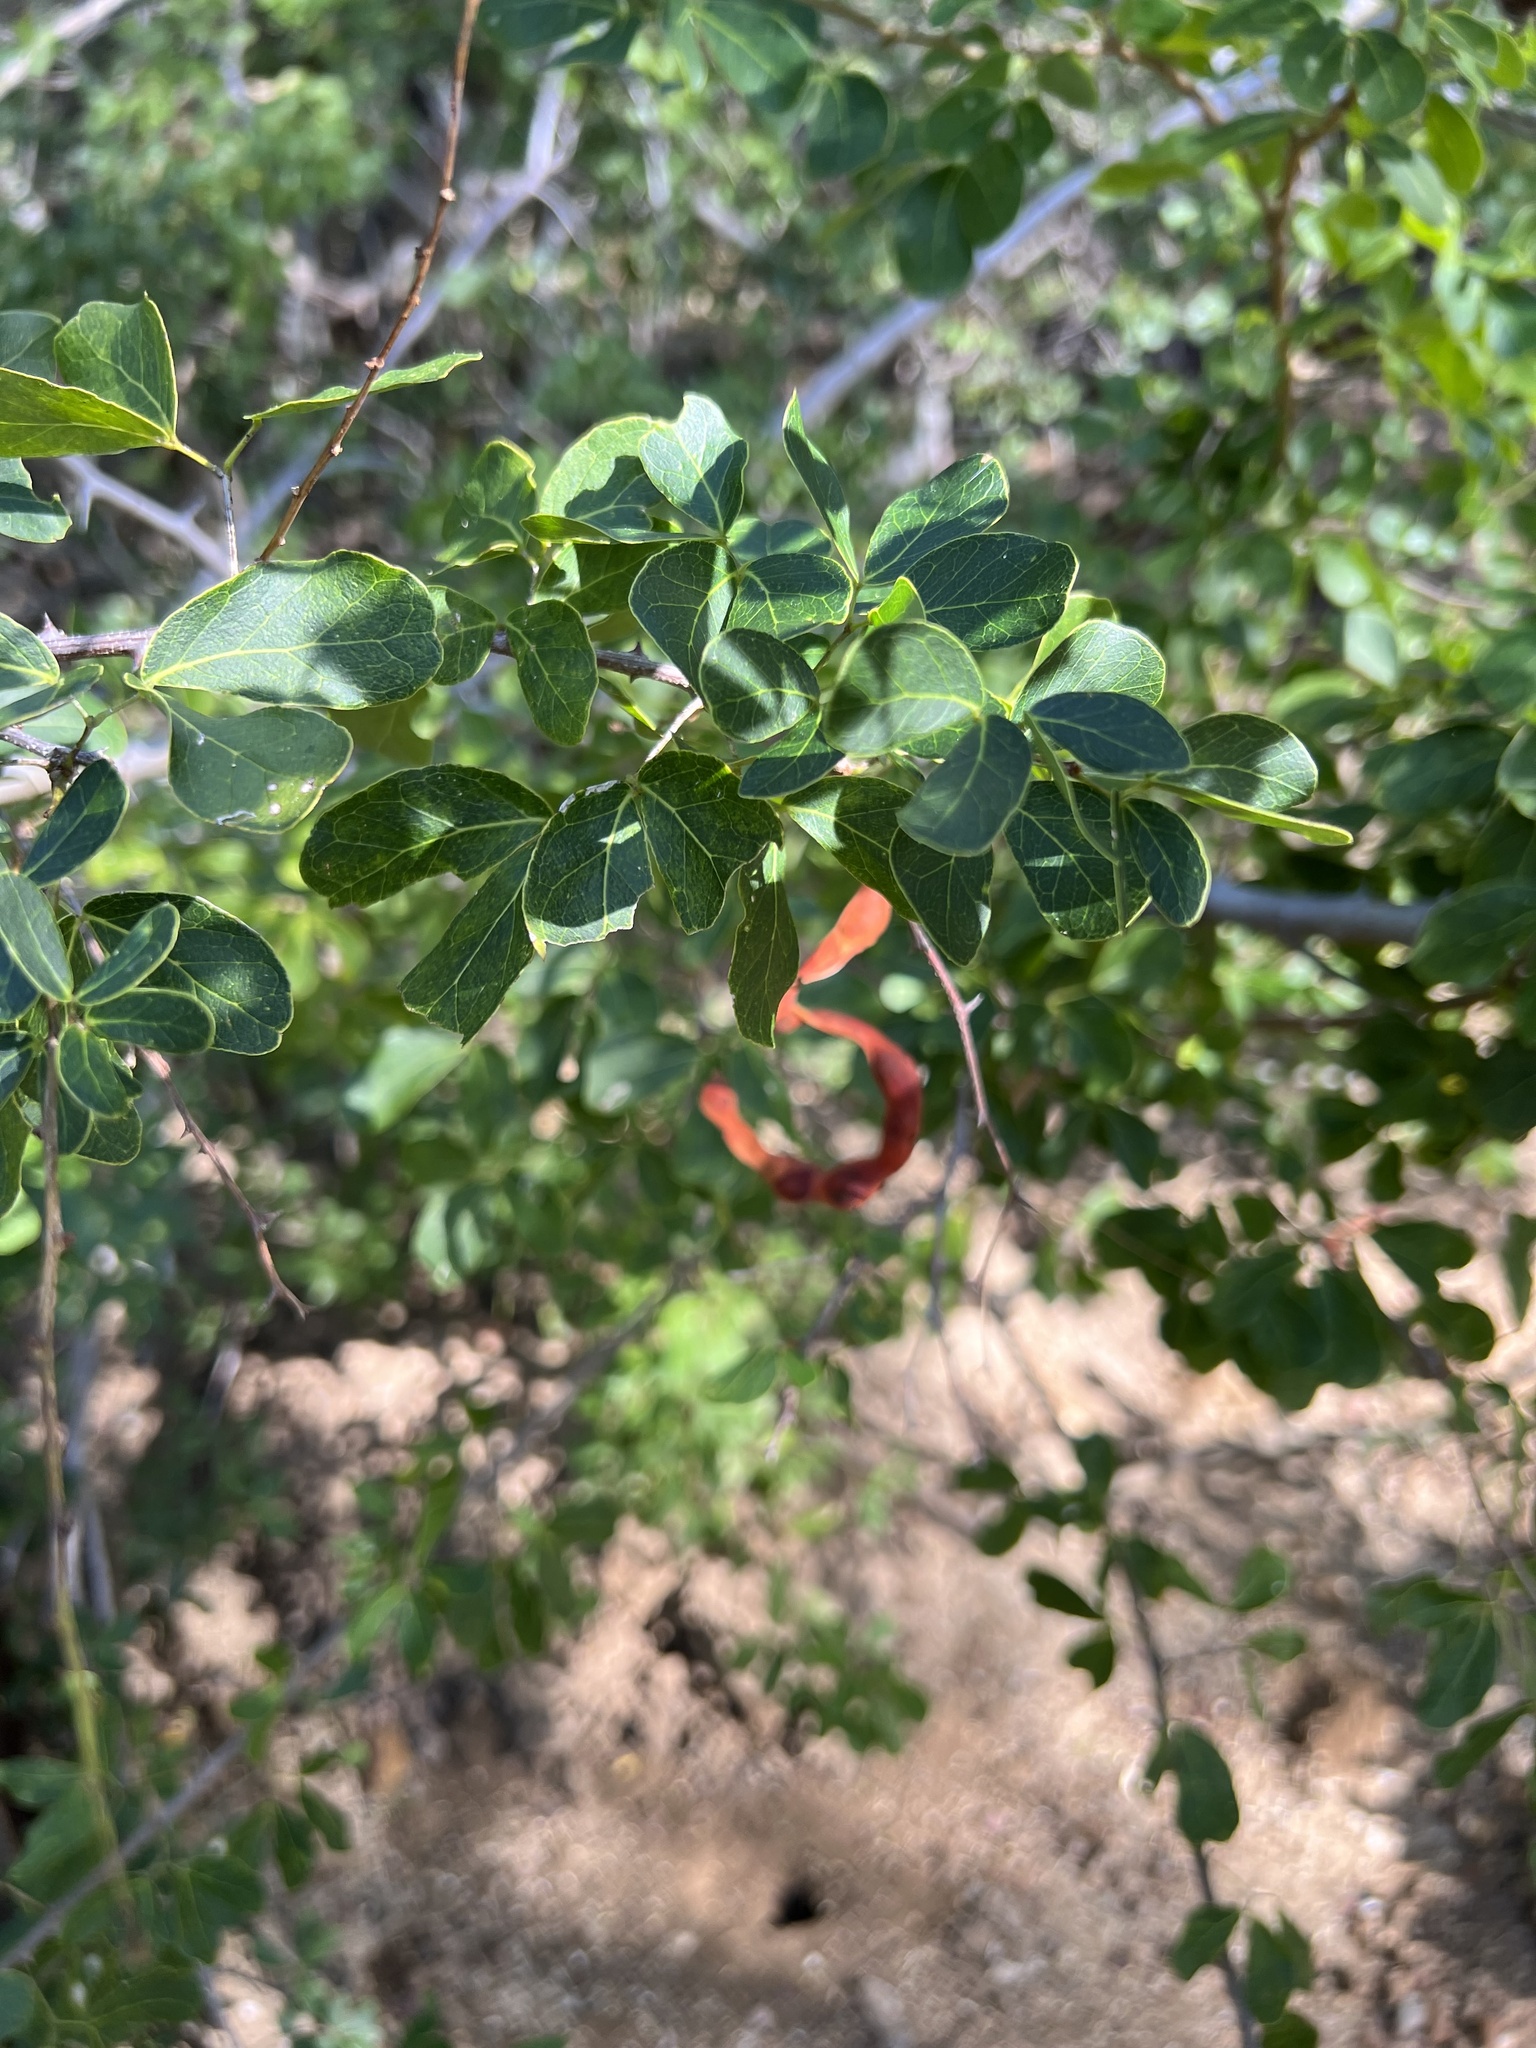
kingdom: Plantae
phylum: Tracheophyta
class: Magnoliopsida
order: Fabales
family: Fabaceae
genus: Pithecellobium
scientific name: Pithecellobium unguis-cati
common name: Cat's-claw
